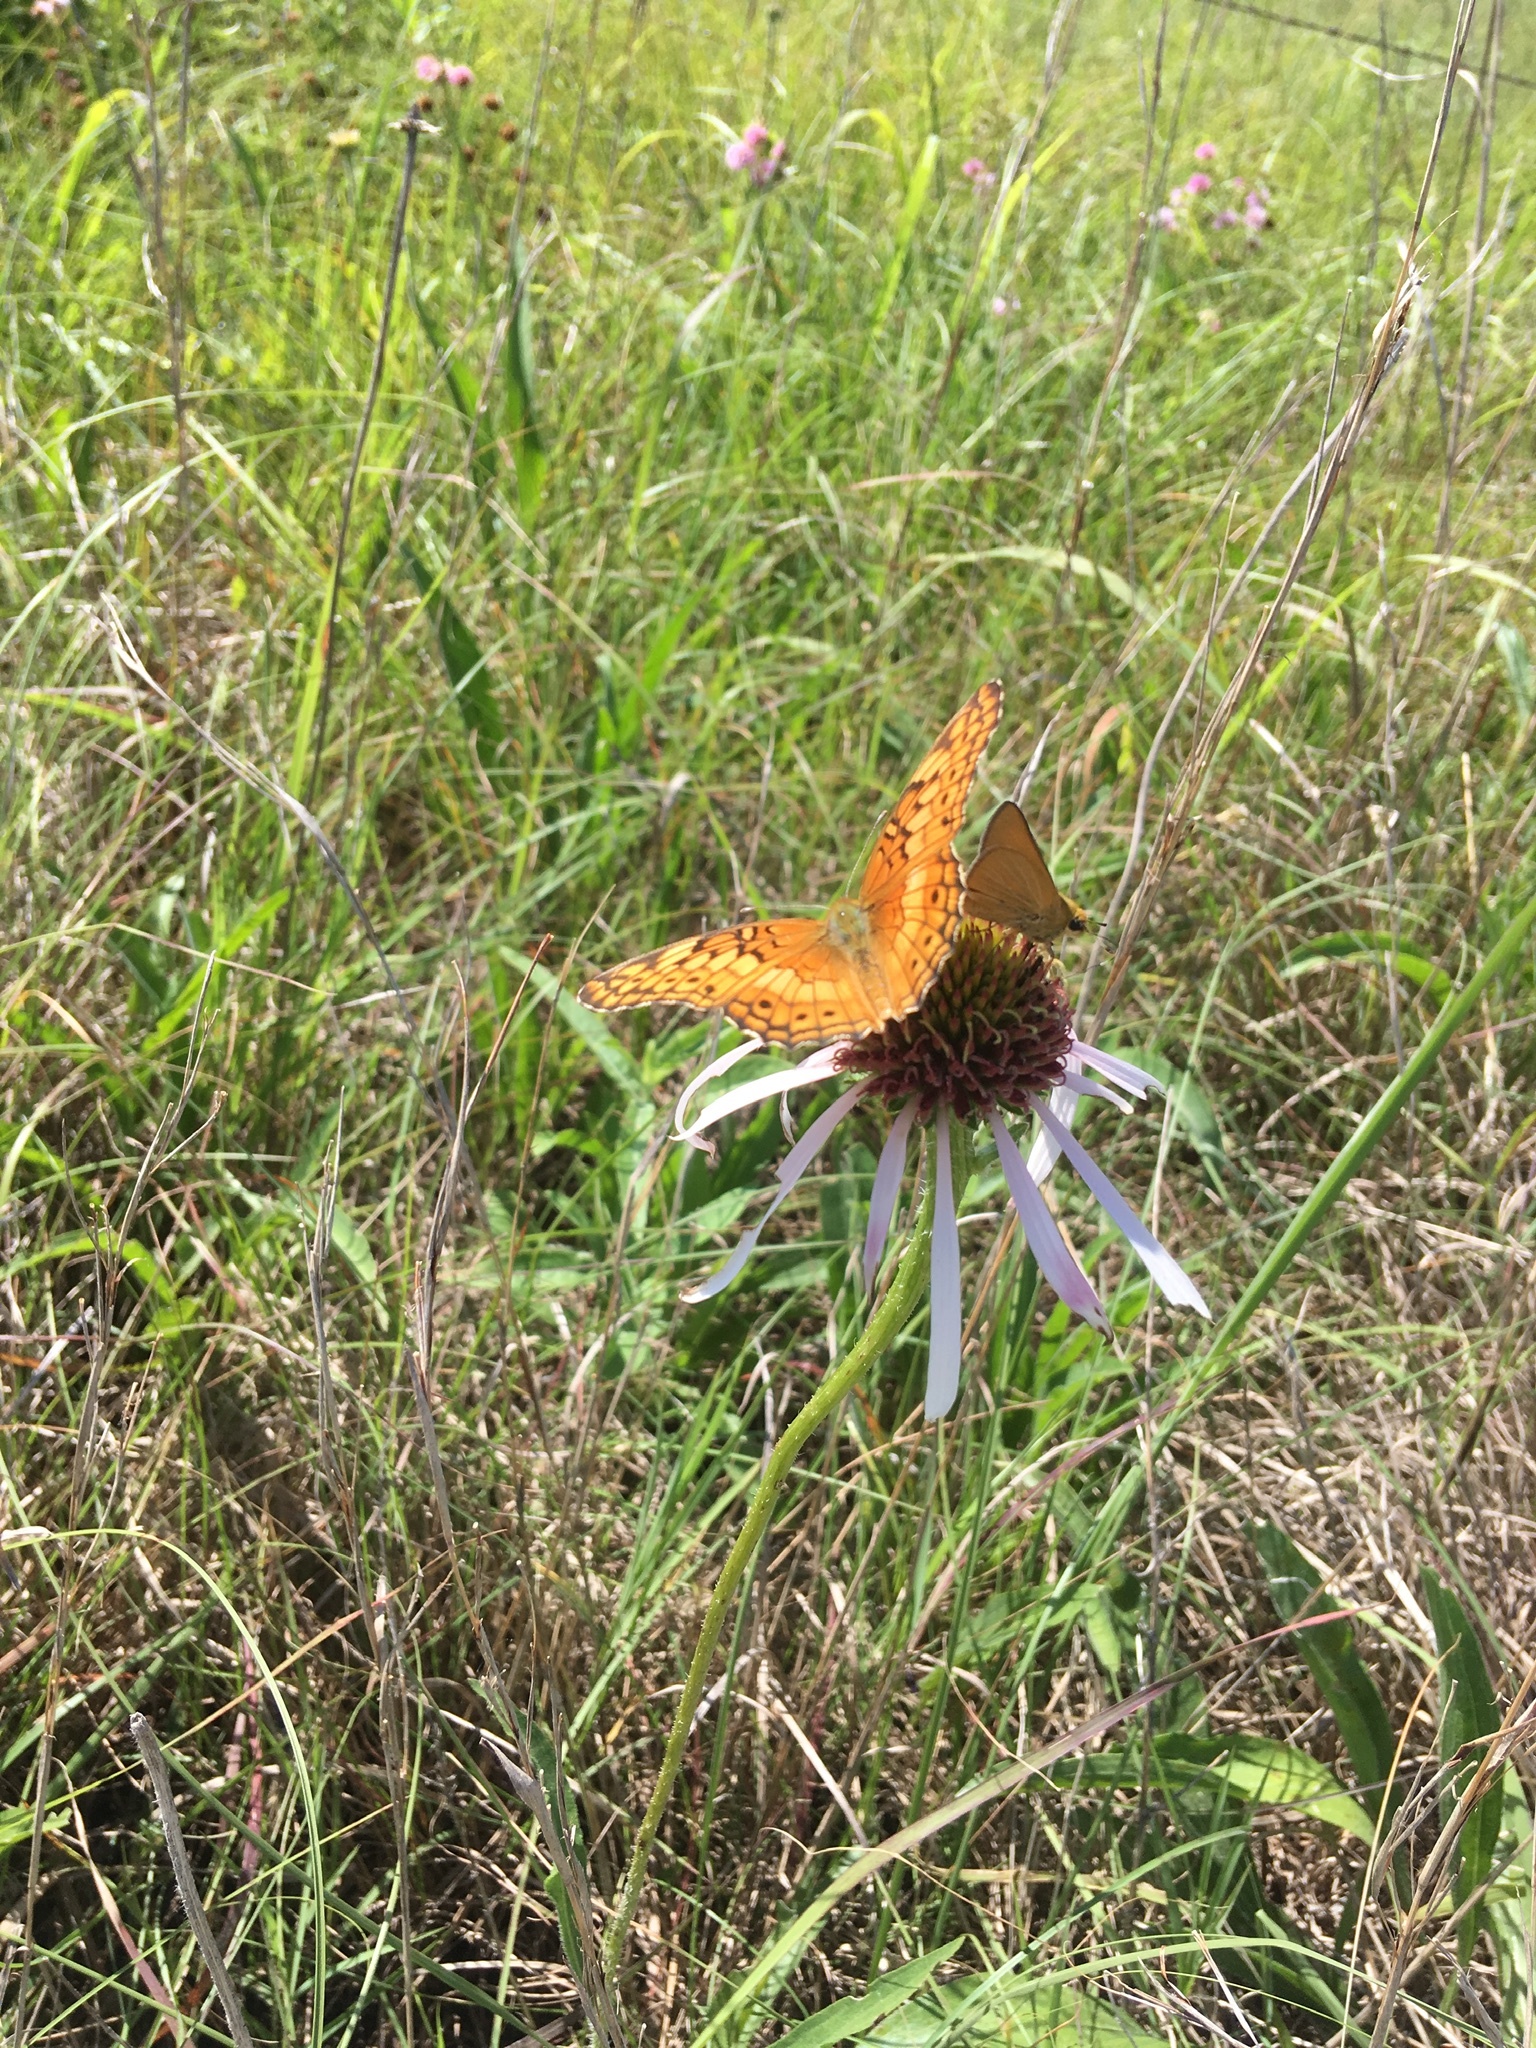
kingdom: Animalia
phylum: Arthropoda
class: Insecta
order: Lepidoptera
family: Nymphalidae
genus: Euptoieta
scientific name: Euptoieta claudia
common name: Variegated fritillary
